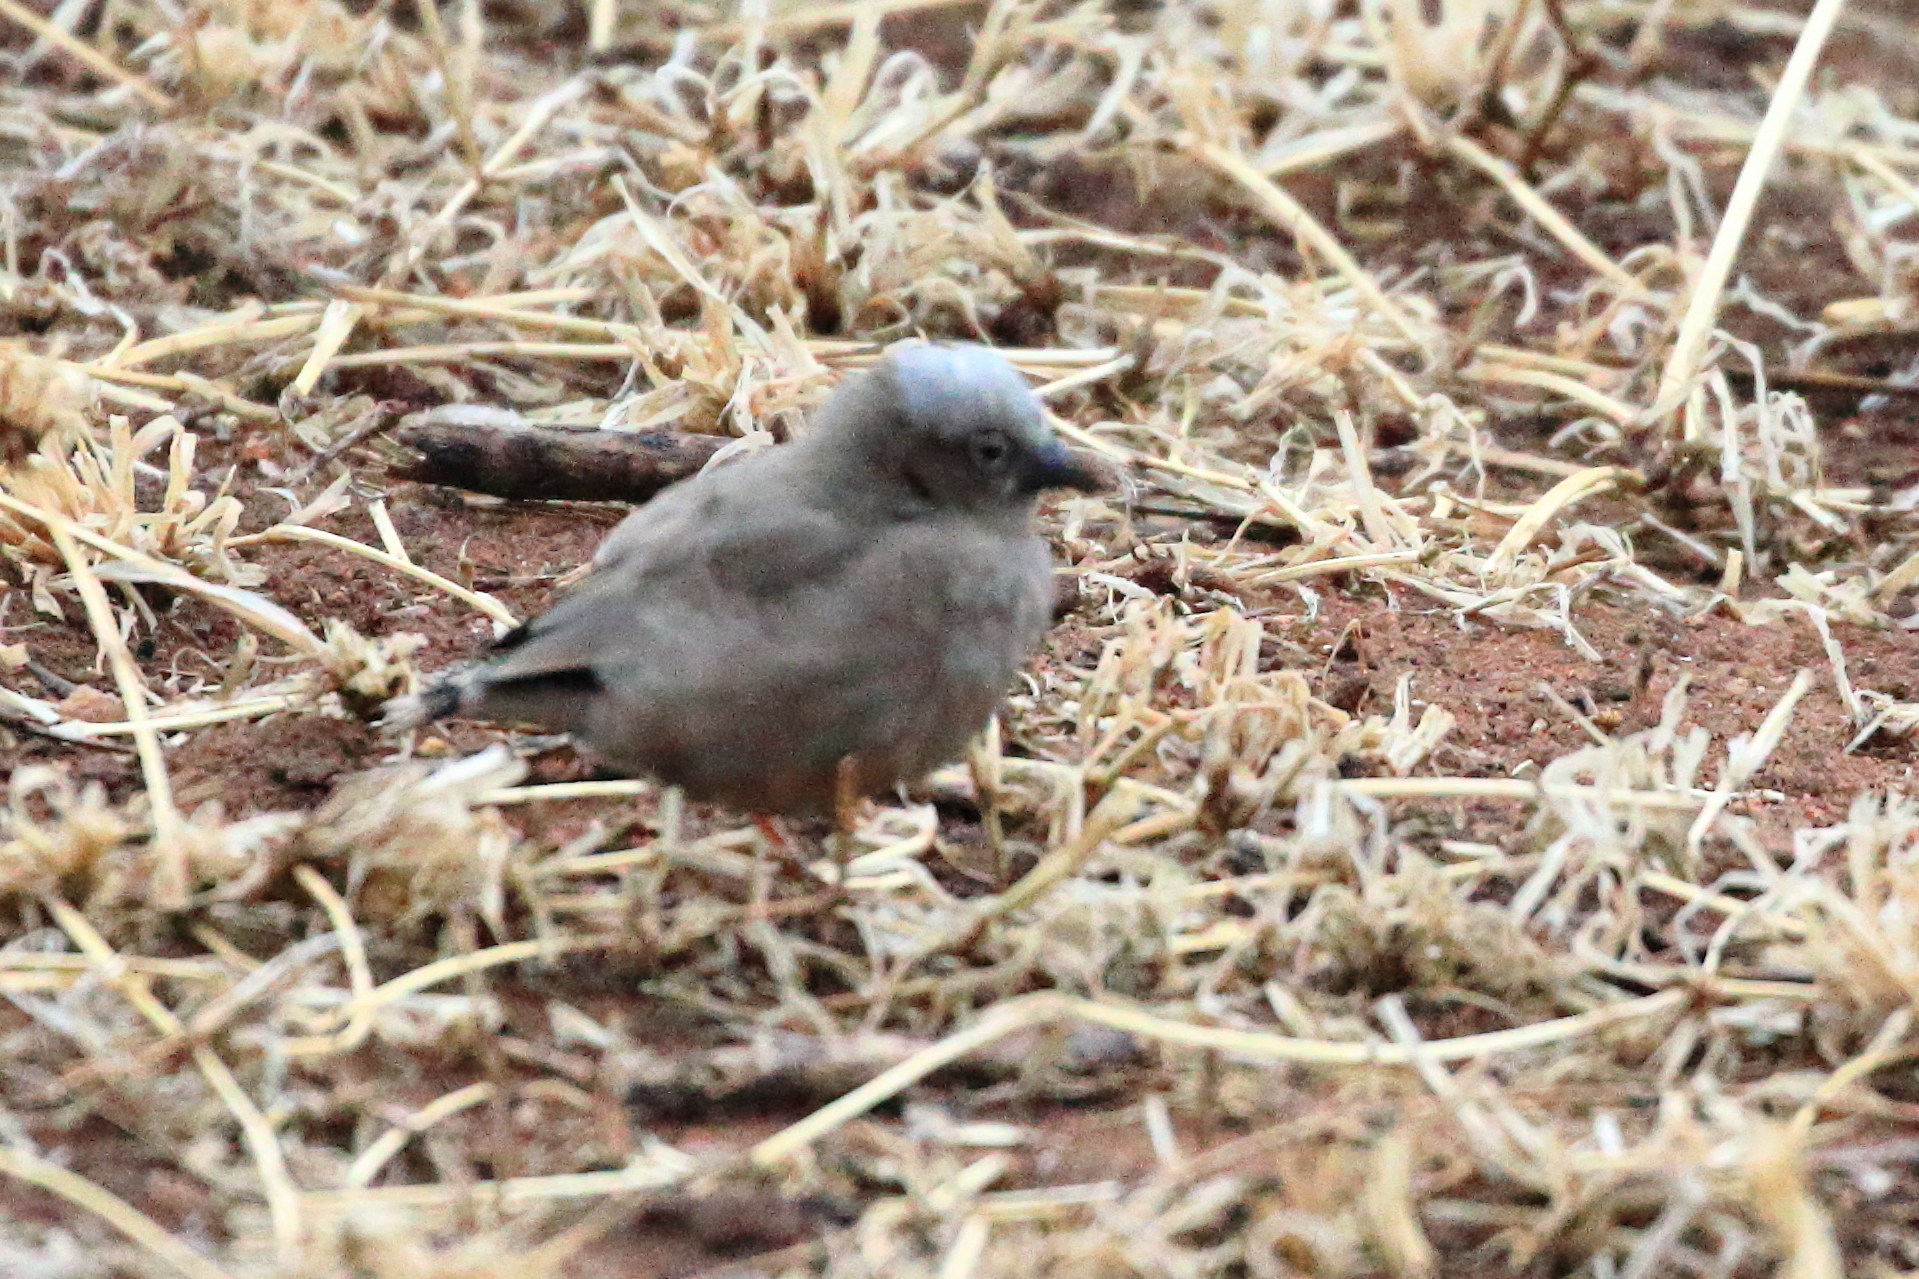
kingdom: Animalia
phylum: Chordata
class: Aves
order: Passeriformes
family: Passeridae
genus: Pseudonigrita
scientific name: Pseudonigrita arnaudi
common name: Grey-capped social weaver
